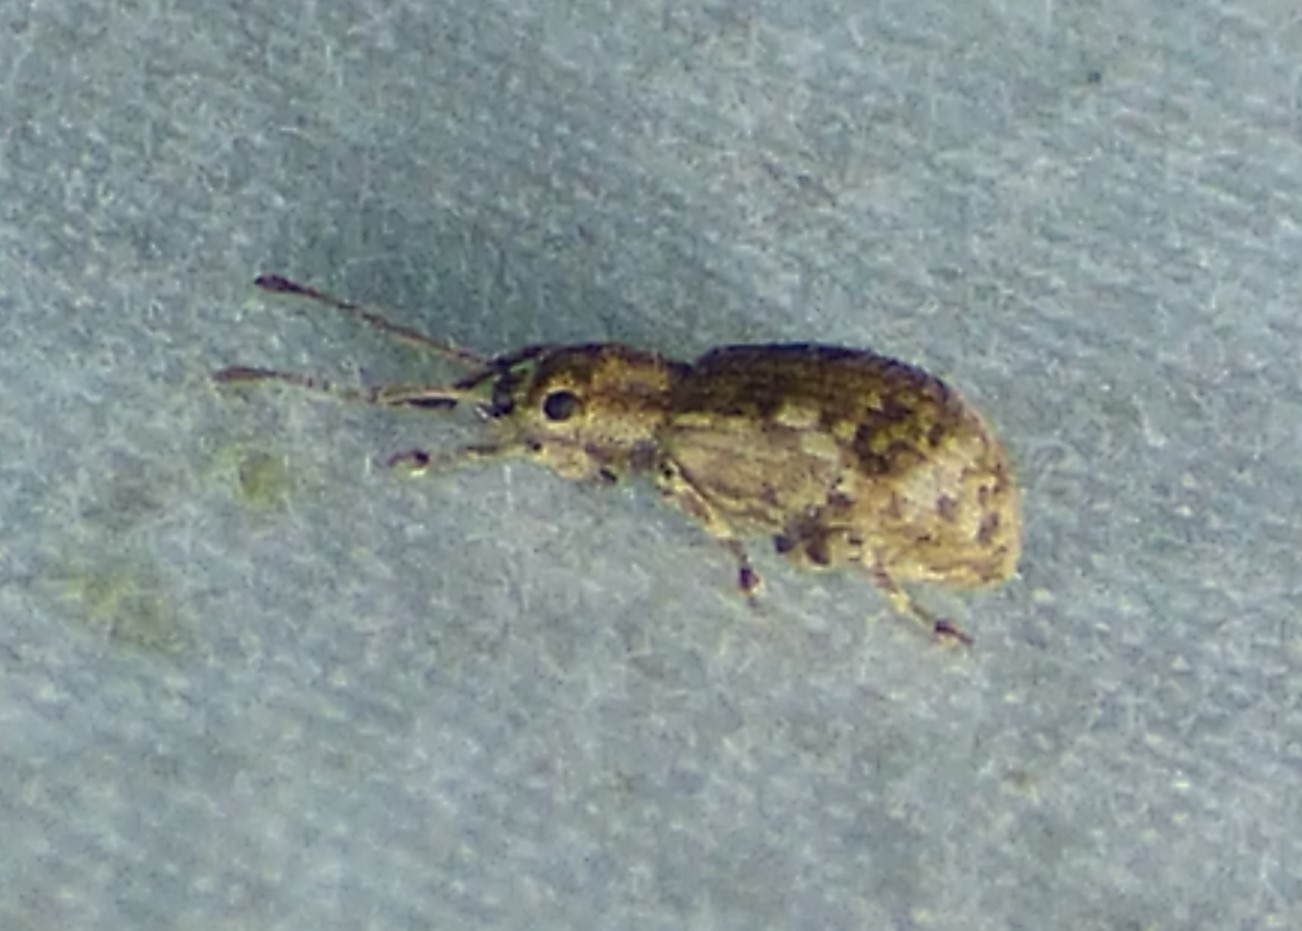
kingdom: Animalia
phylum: Arthropoda
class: Insecta
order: Coleoptera
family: Curculionidae
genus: Pseudoedophrys
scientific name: Pseudoedophrys hilleri
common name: Weevil
